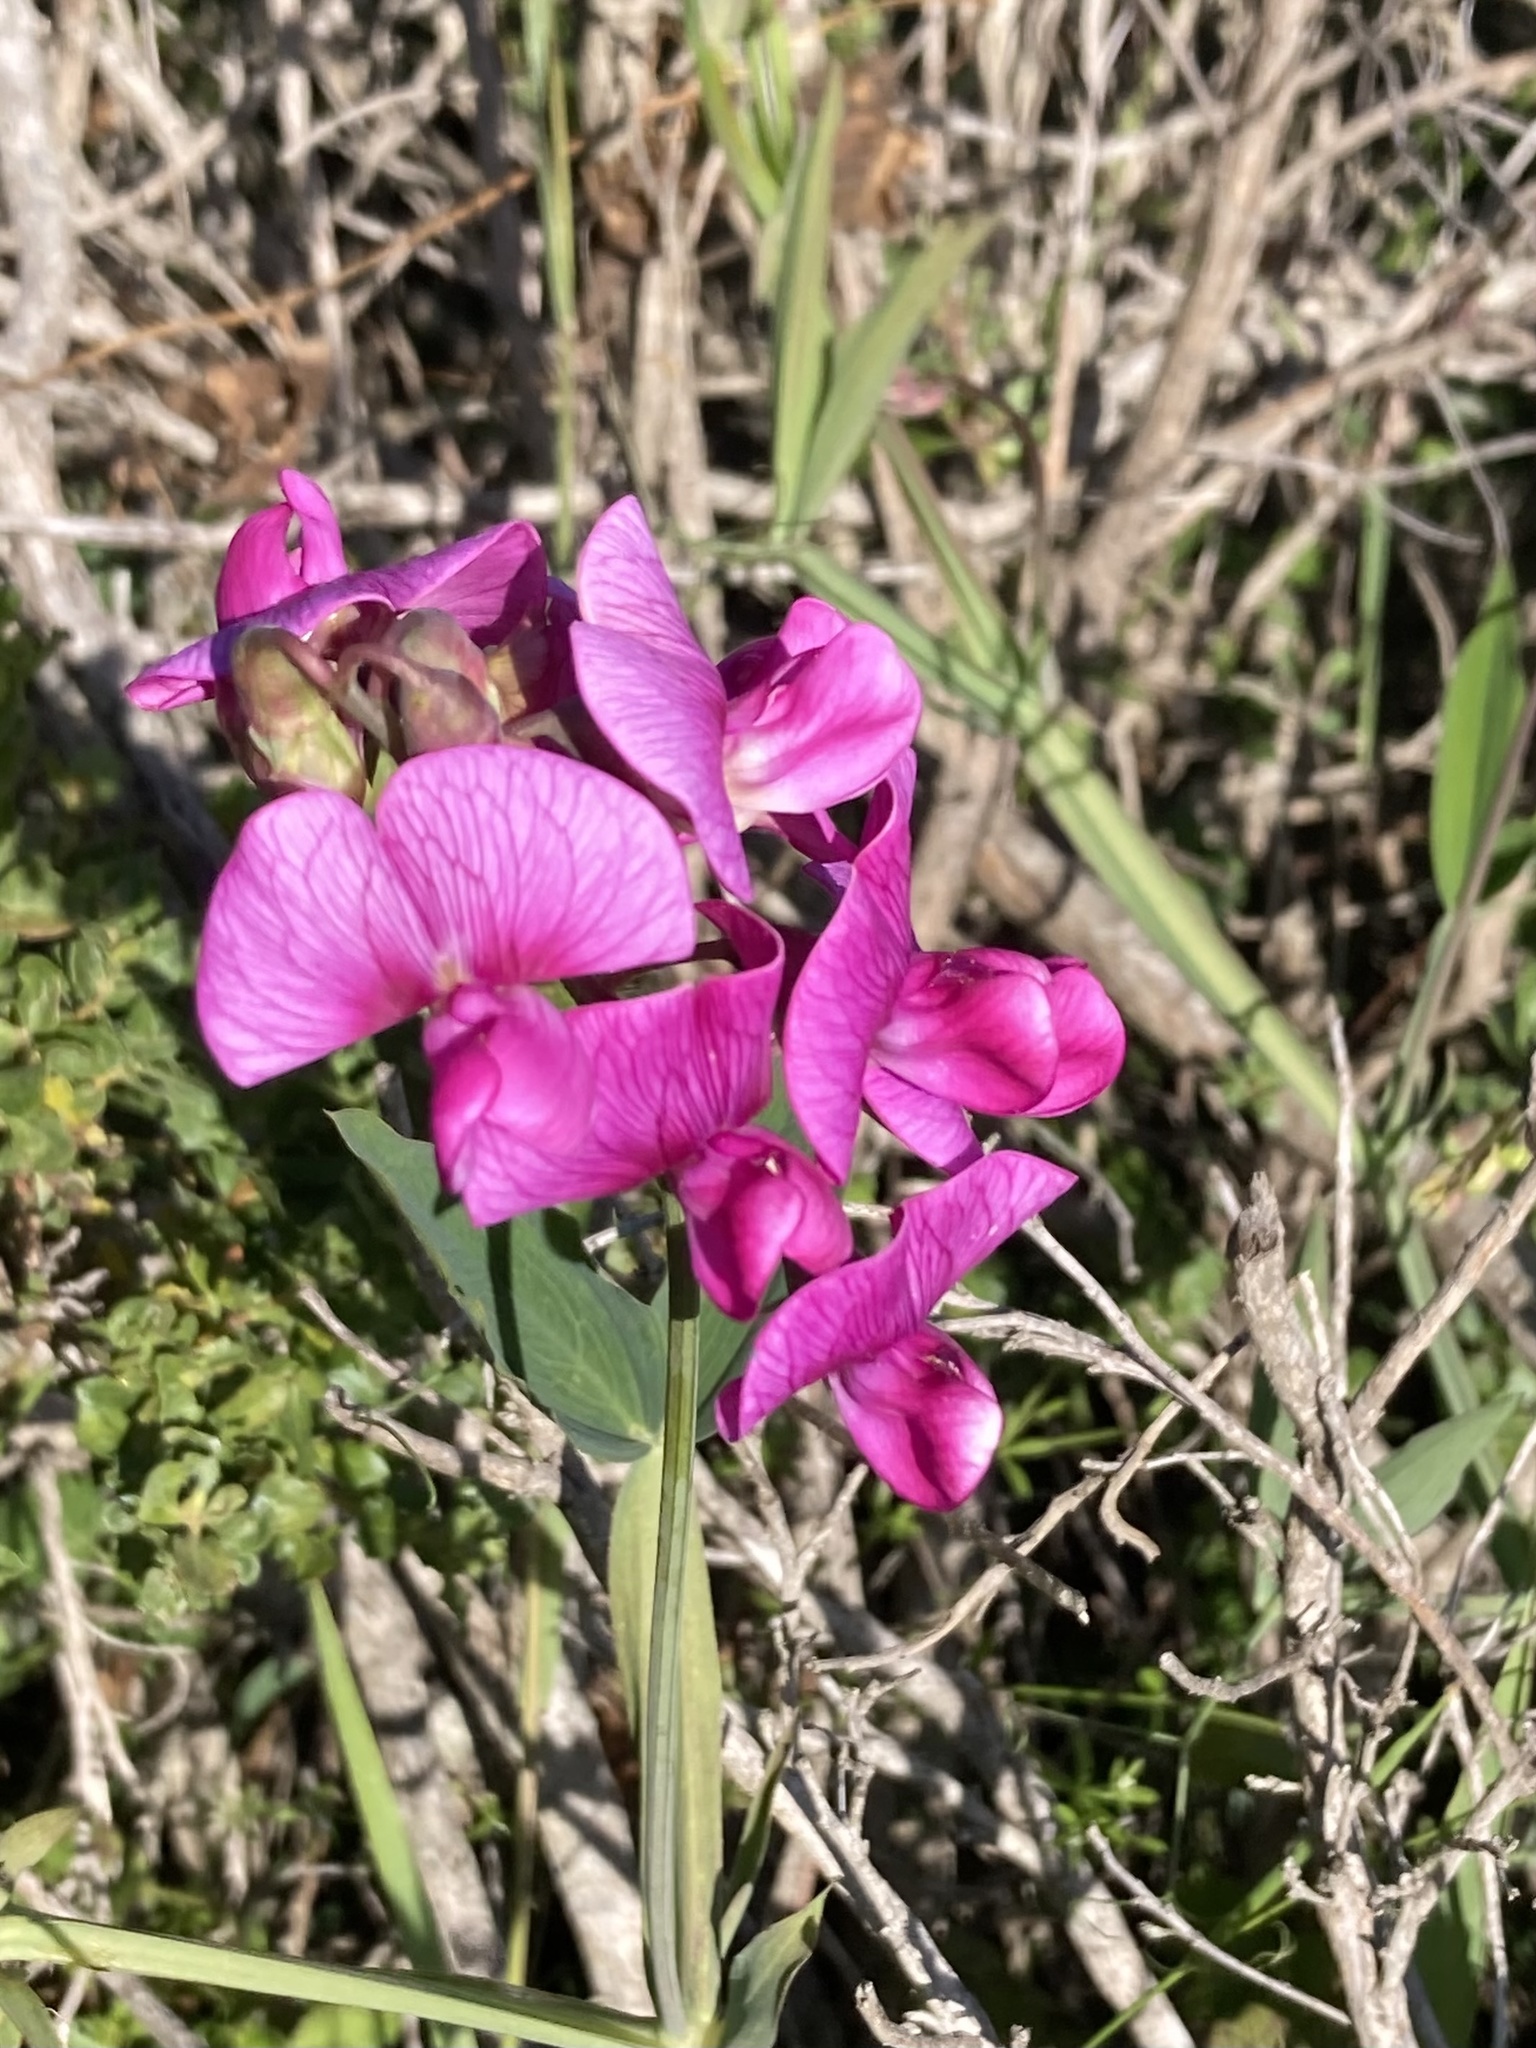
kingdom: Plantae
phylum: Tracheophyta
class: Magnoliopsida
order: Fabales
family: Fabaceae
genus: Lathyrus
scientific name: Lathyrus latifolius
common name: Perennial pea
